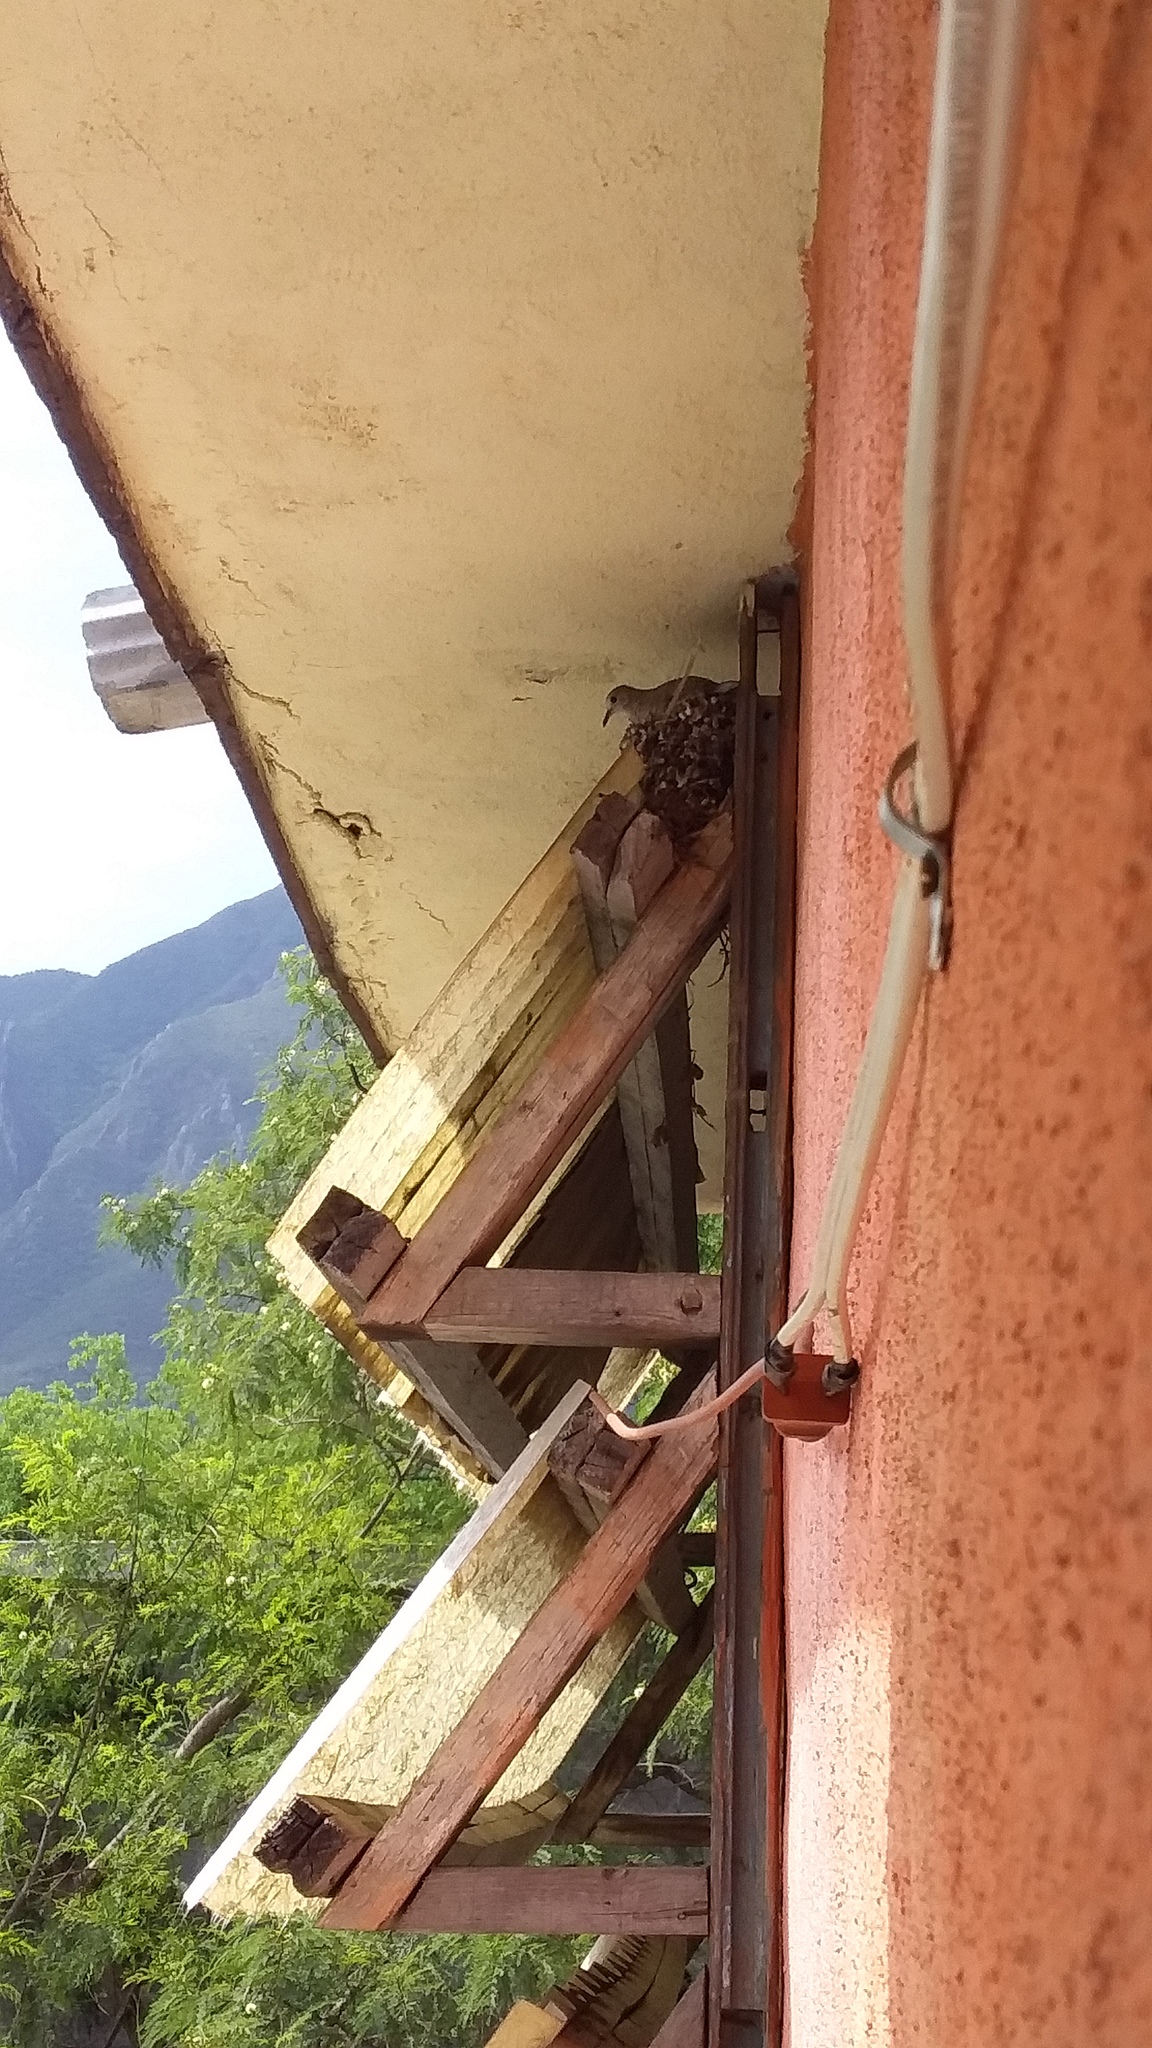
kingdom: Animalia
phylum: Chordata
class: Aves
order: Columbiformes
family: Columbidae
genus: Columbina
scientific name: Columbina inca
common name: Inca dove
